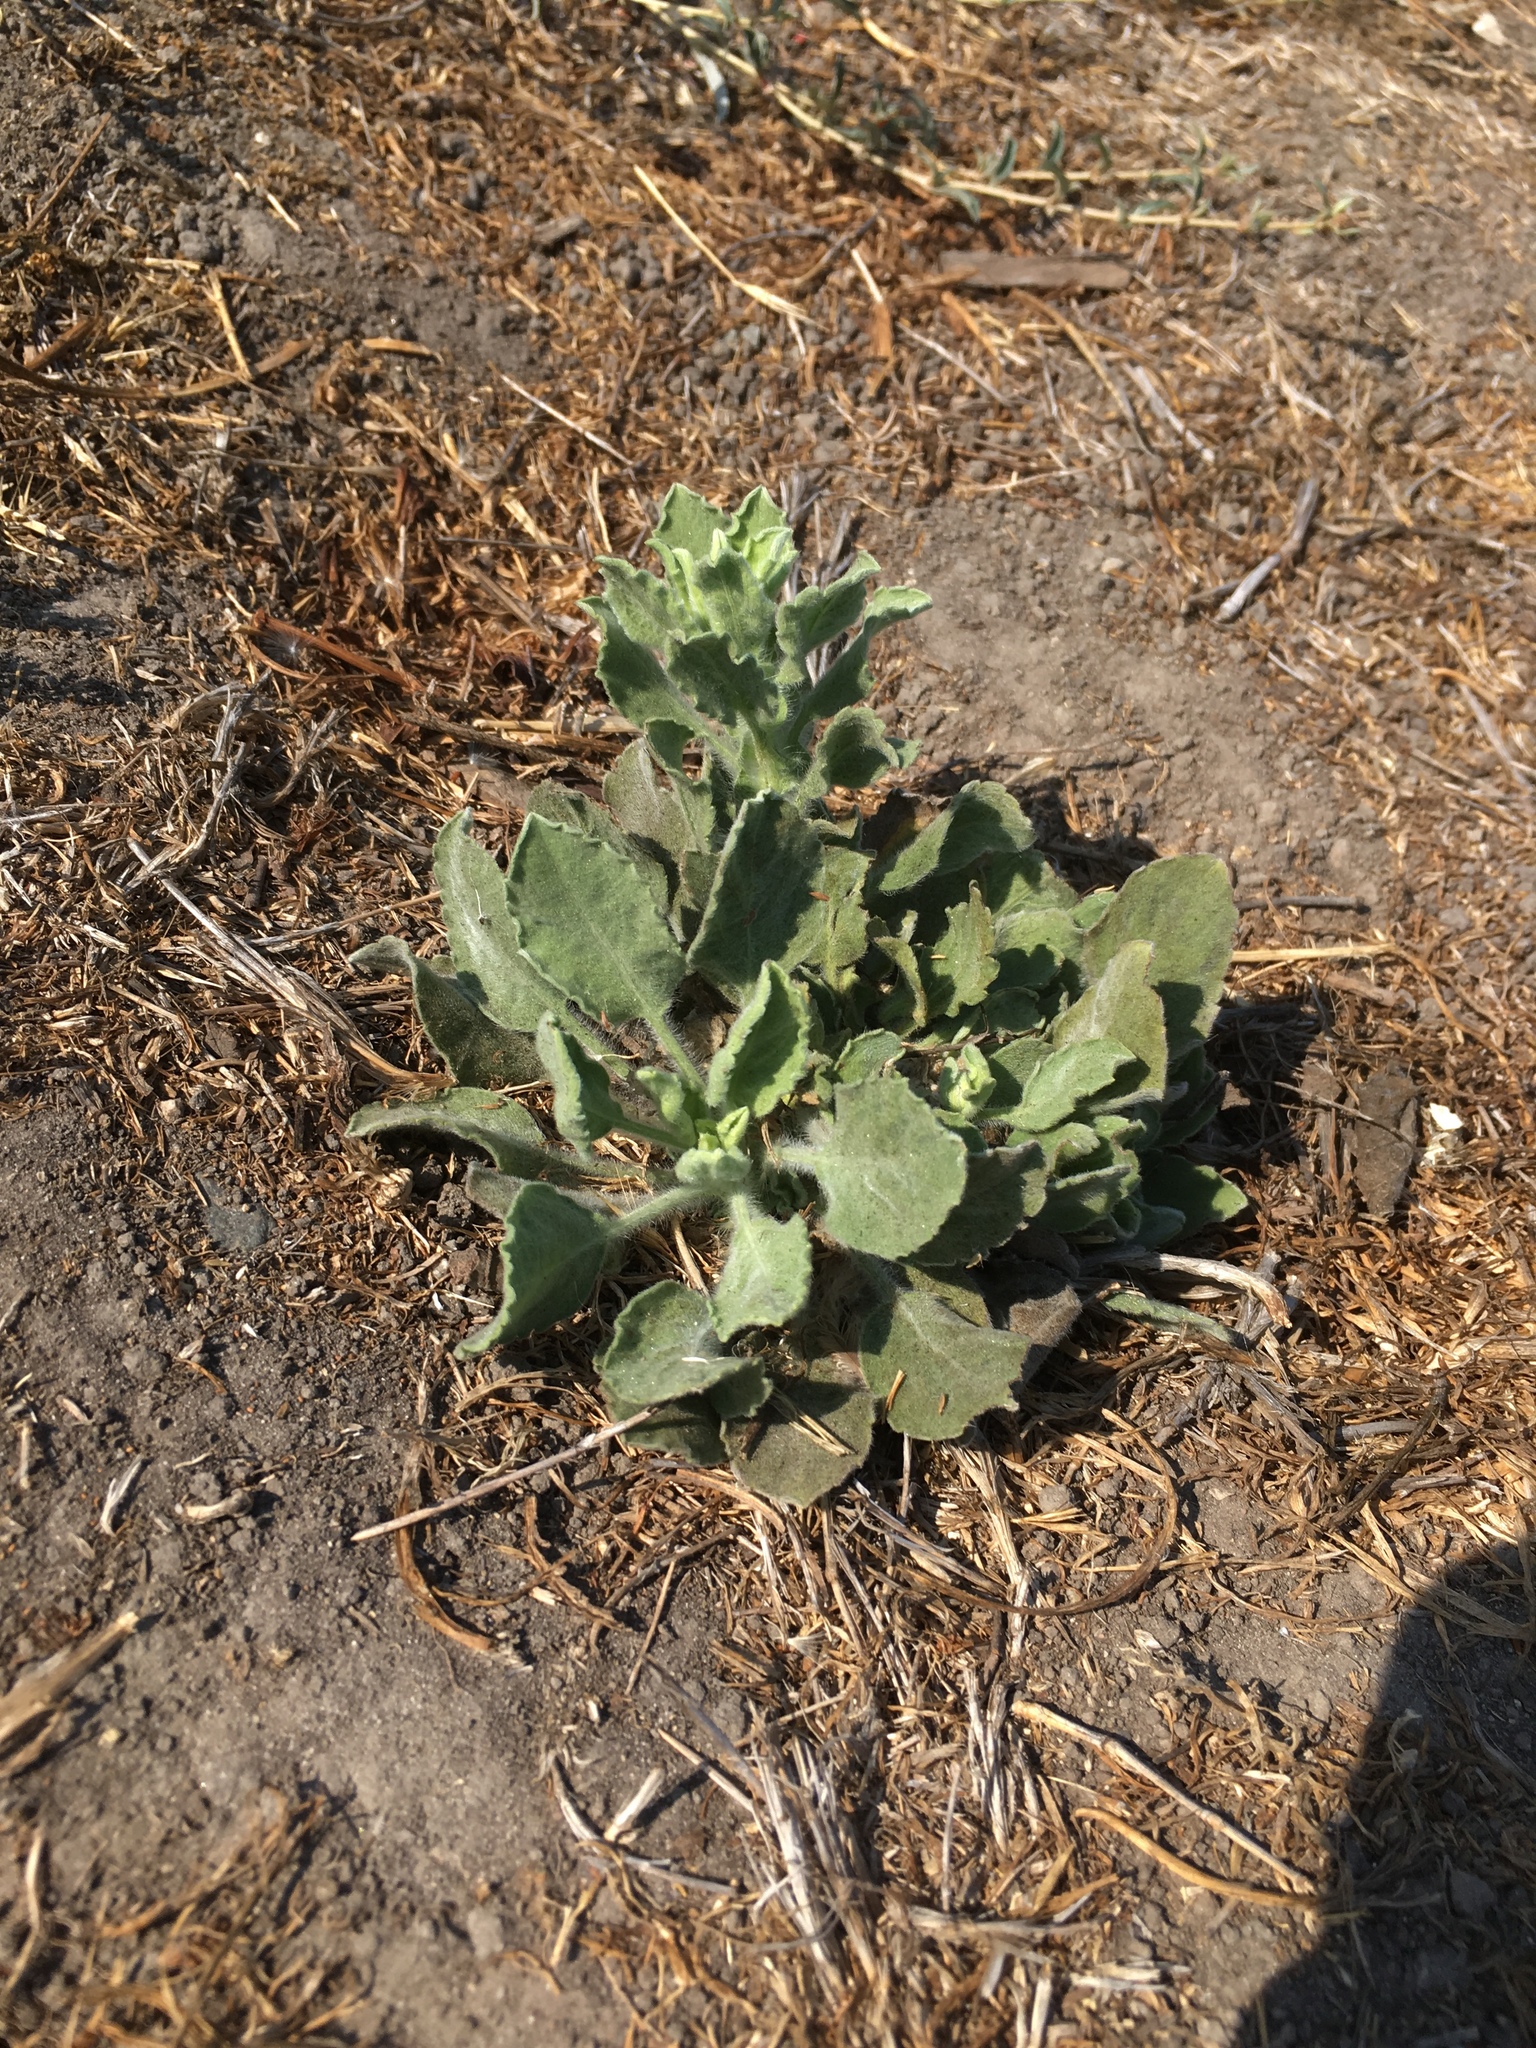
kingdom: Plantae
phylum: Tracheophyta
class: Magnoliopsida
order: Asterales
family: Asteraceae
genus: Heterotheca
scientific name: Heterotheca grandiflora
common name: Telegraphweed
